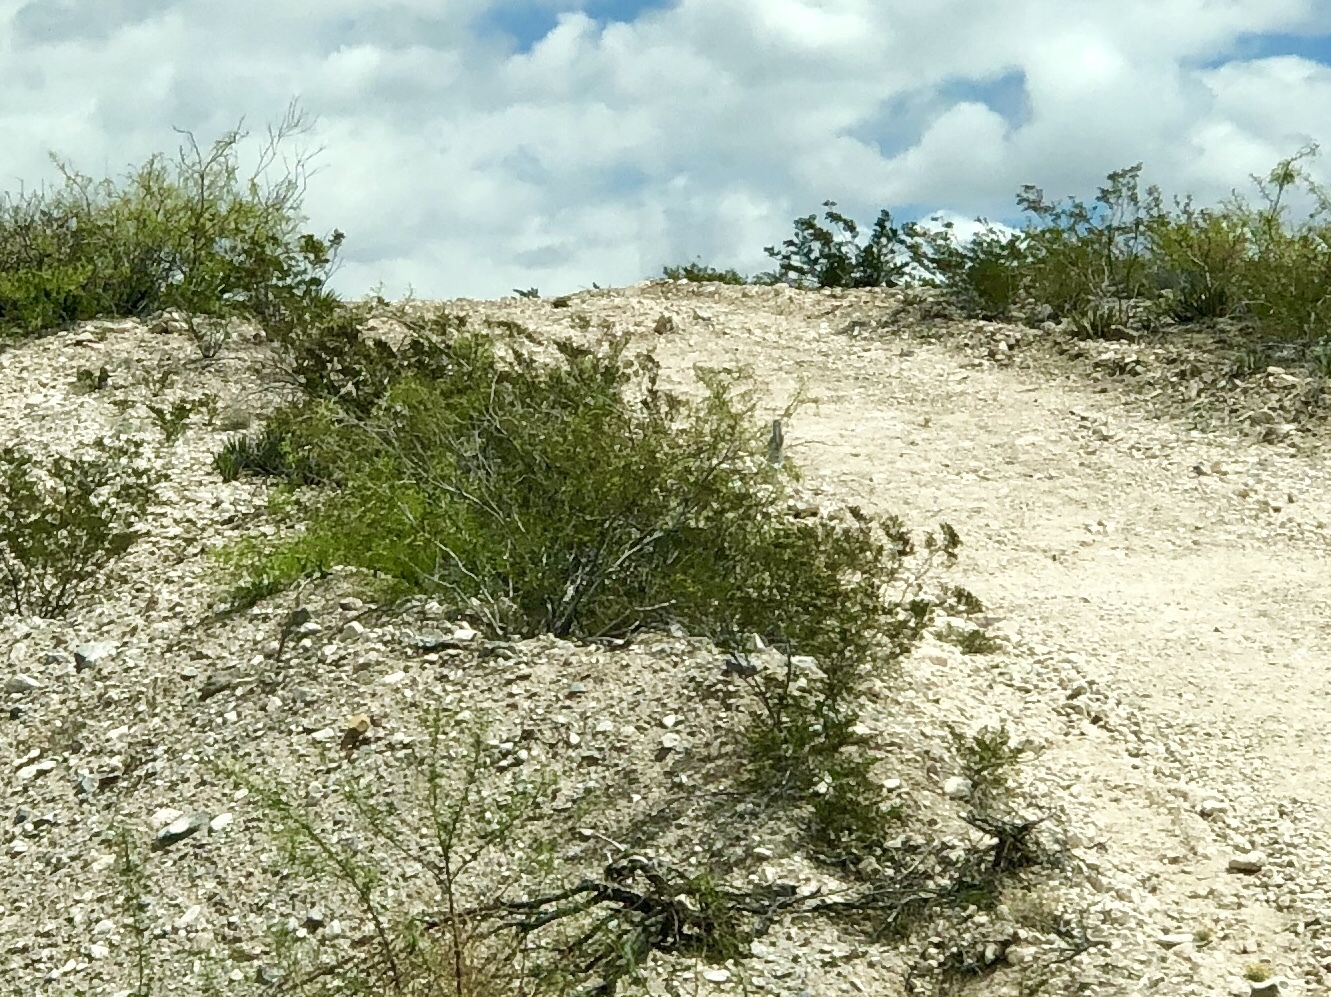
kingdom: Plantae
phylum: Tracheophyta
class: Magnoliopsida
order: Zygophyllales
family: Zygophyllaceae
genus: Larrea
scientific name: Larrea tridentata
